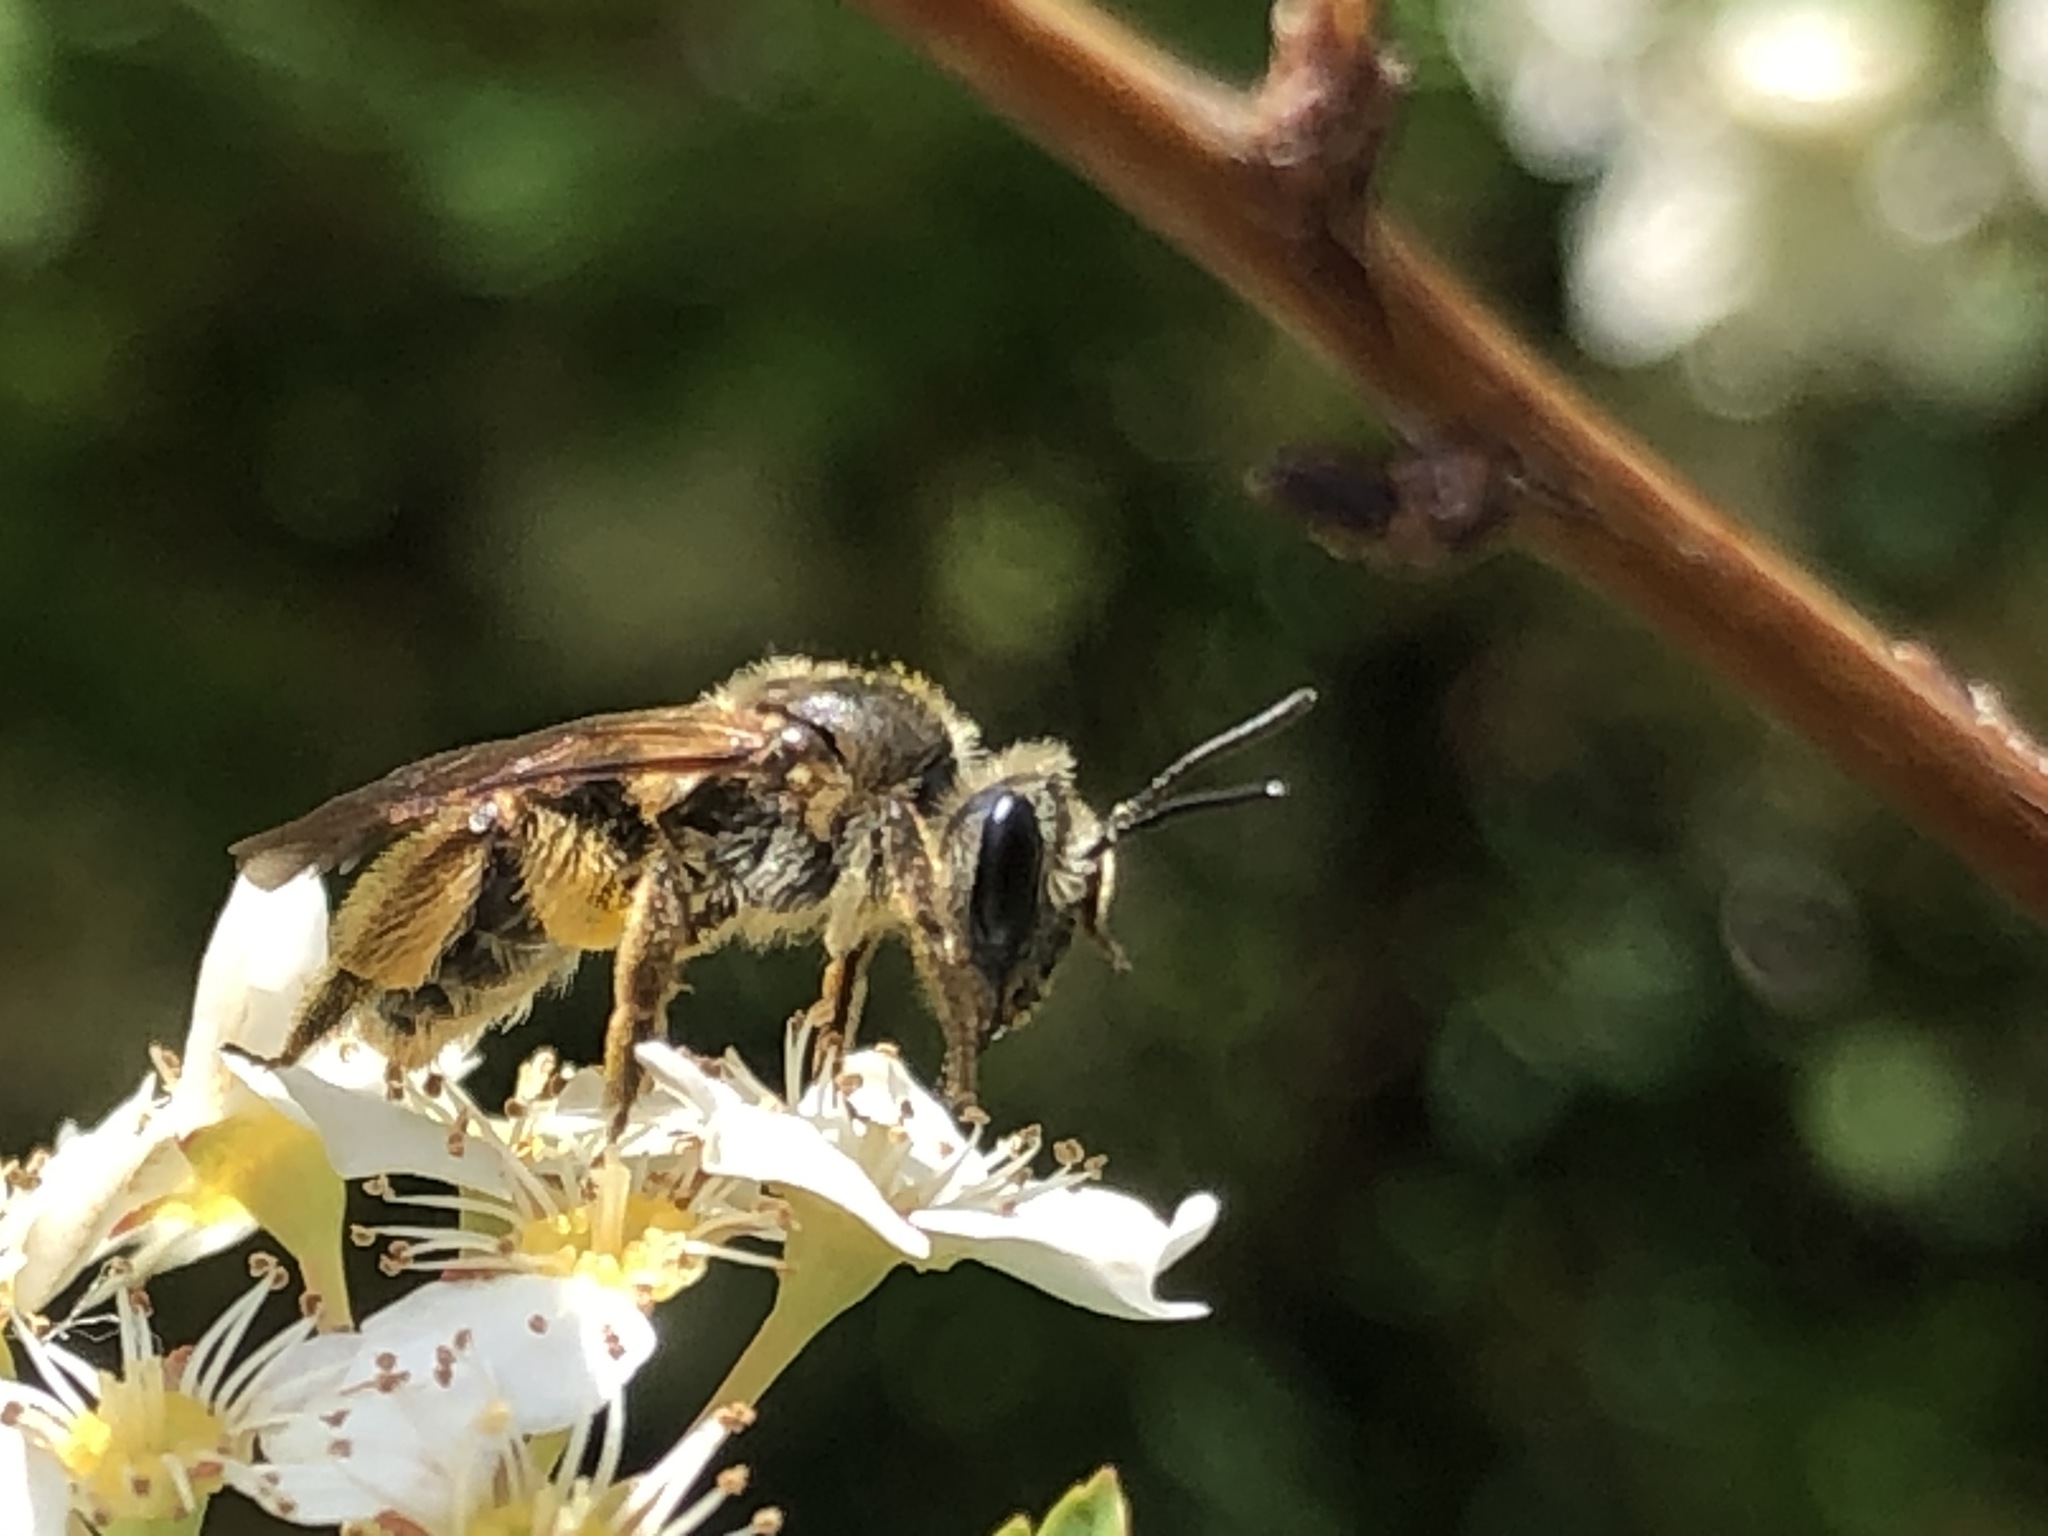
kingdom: Animalia
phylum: Arthropoda
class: Insecta
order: Hymenoptera
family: Andrenidae
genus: Andrena
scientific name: Andrena
